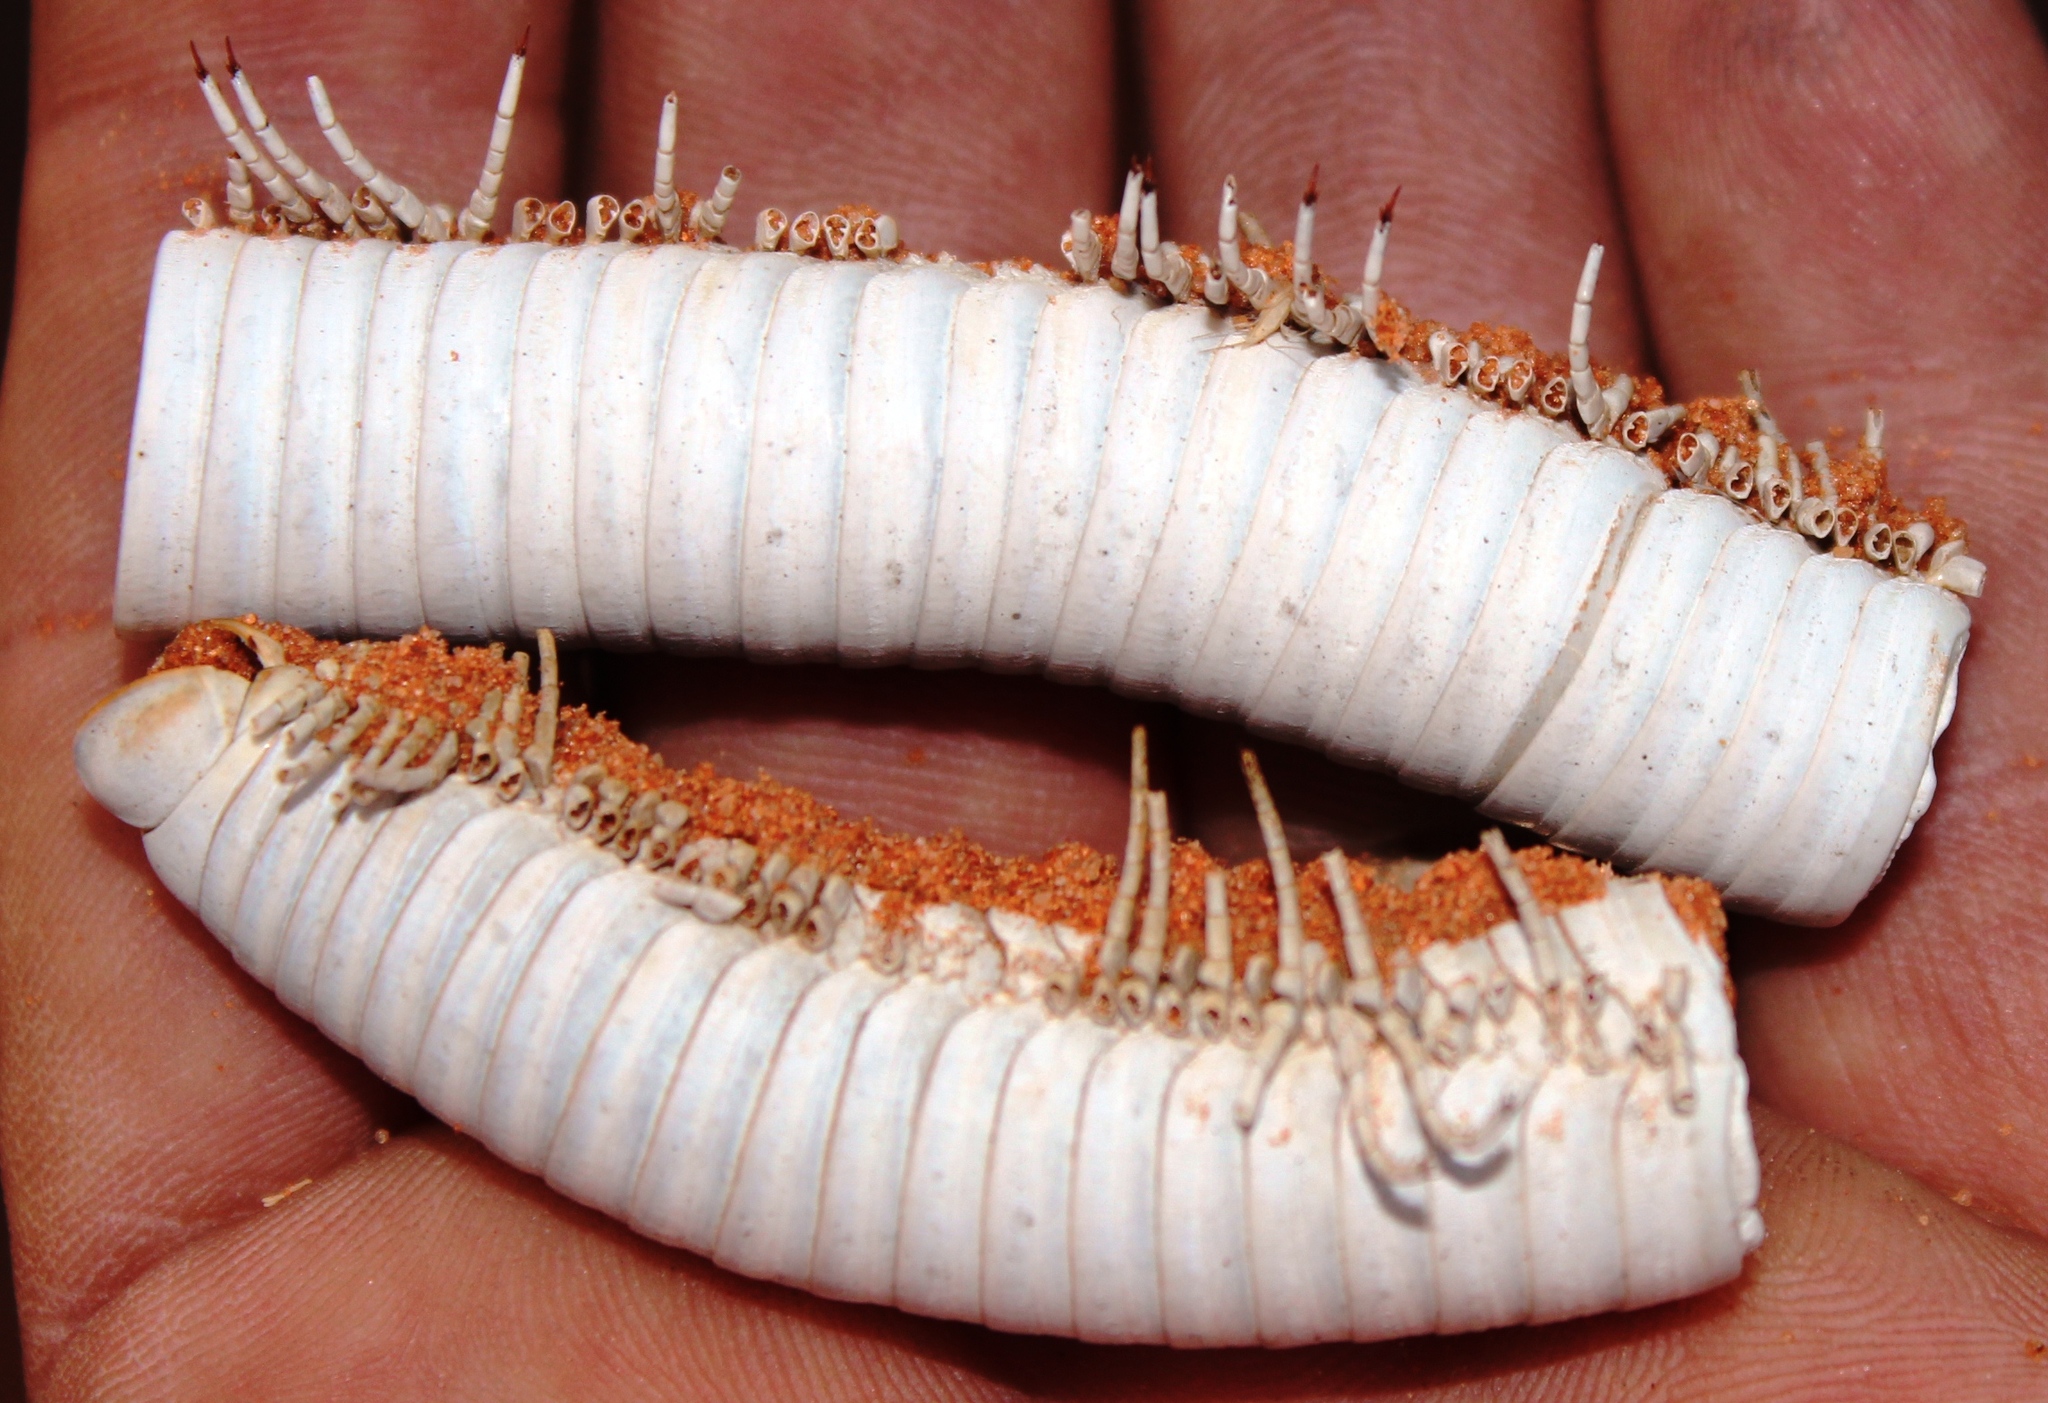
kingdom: Animalia
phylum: Arthropoda
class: Diplopoda
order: Spirostreptida
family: Spirostreptidae
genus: Doratogonus
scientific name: Doratogonus rugifrons
